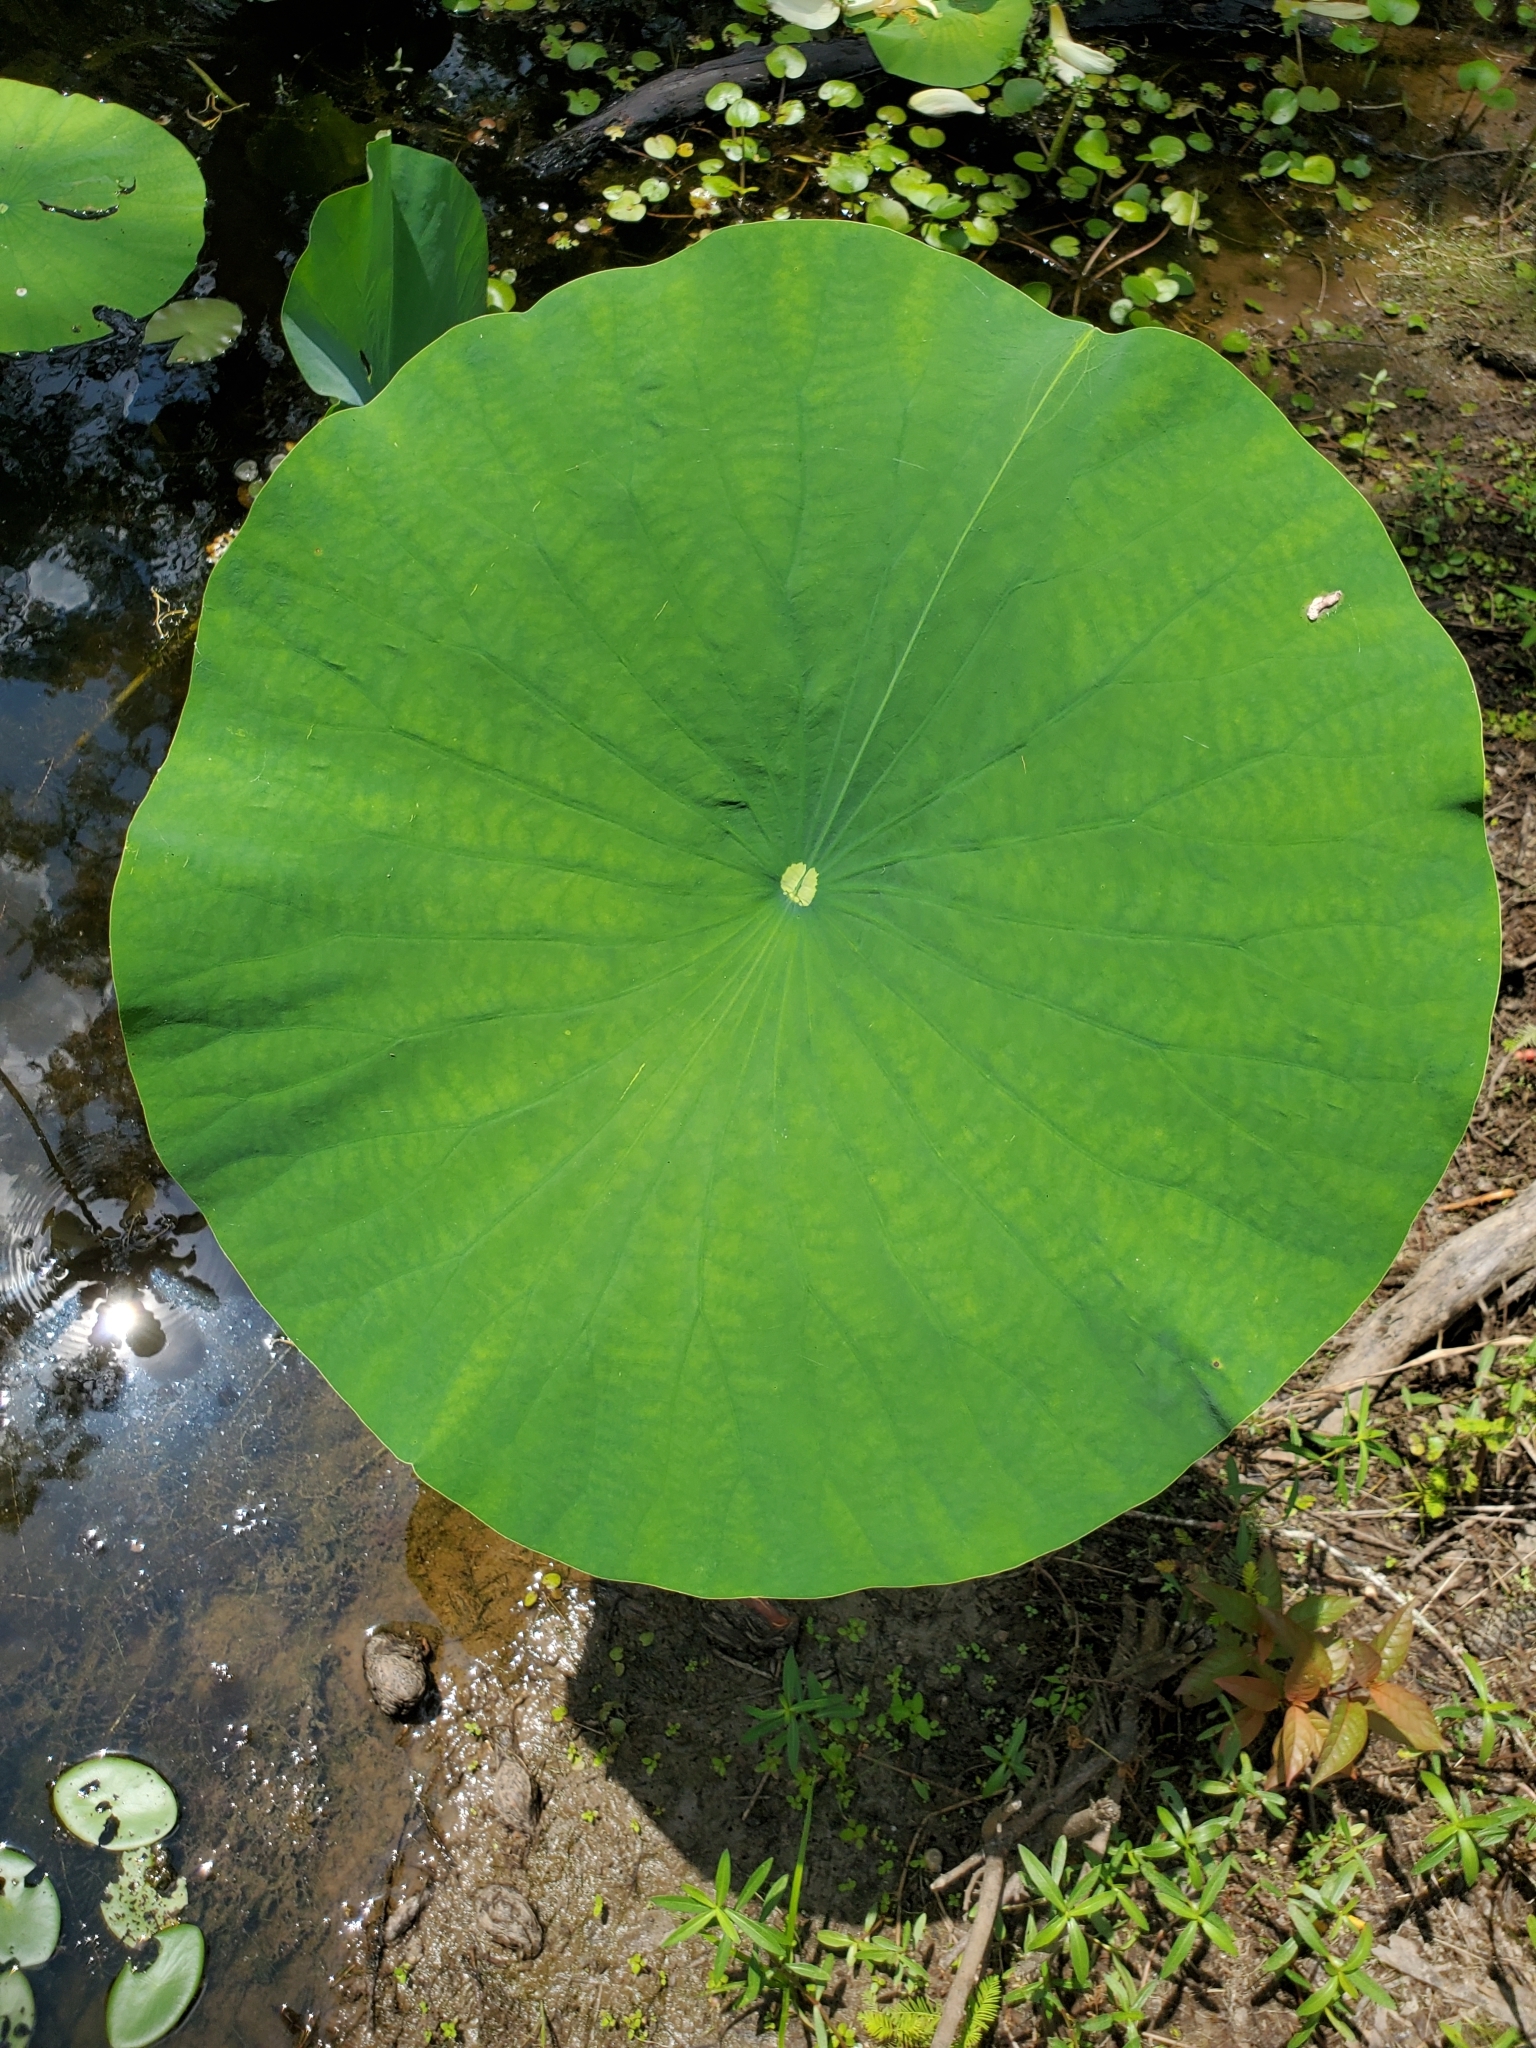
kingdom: Plantae
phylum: Tracheophyta
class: Magnoliopsida
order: Proteales
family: Nelumbonaceae
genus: Nelumbo
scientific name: Nelumbo lutea
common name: American lotus
